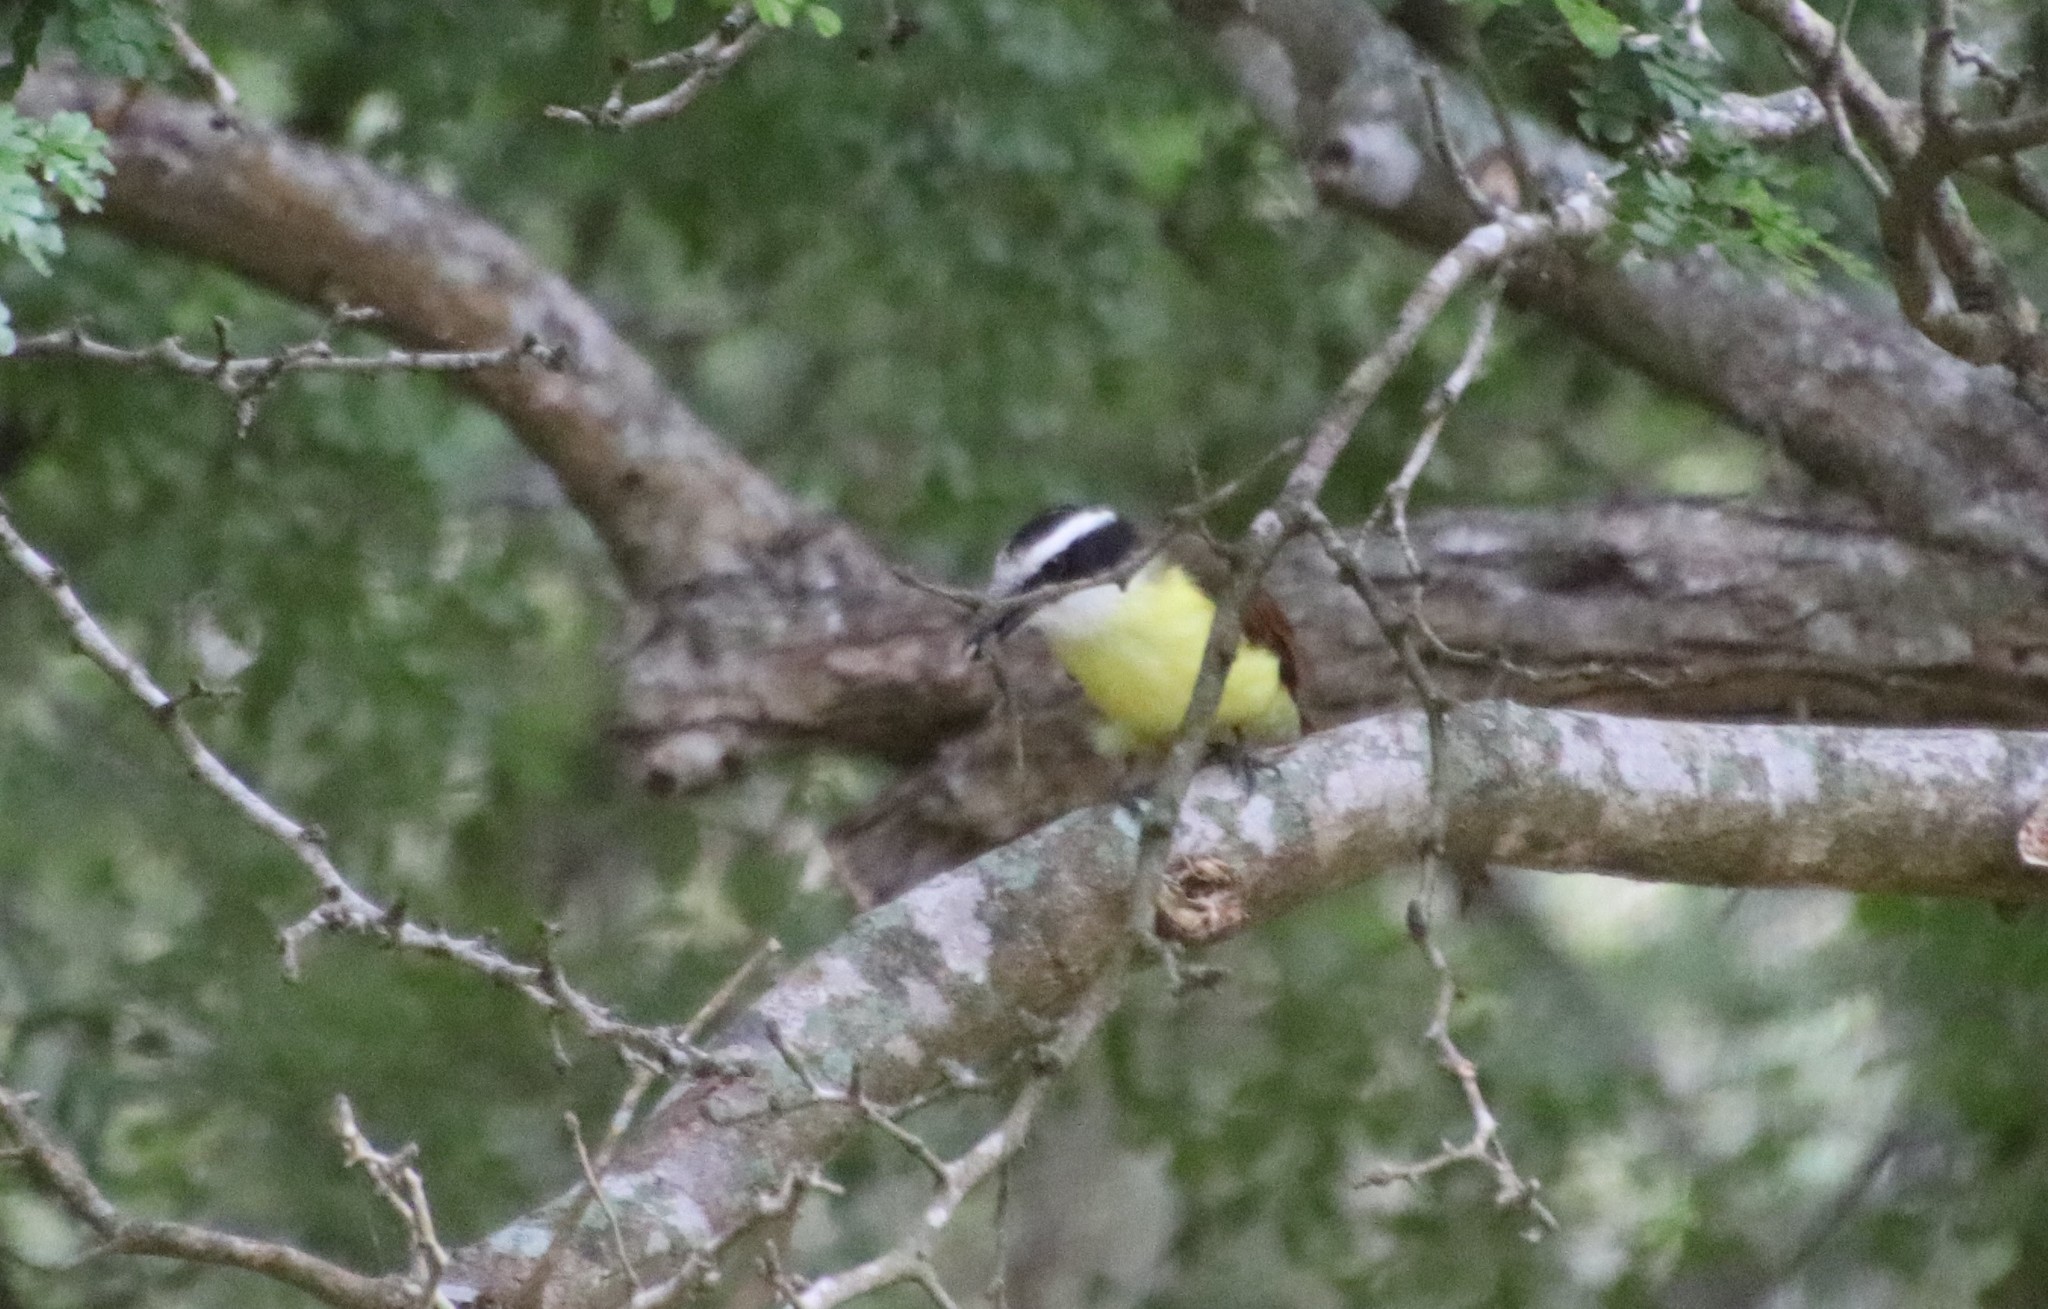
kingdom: Animalia
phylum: Chordata
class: Aves
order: Passeriformes
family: Tyrannidae
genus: Pitangus
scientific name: Pitangus sulphuratus
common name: Great kiskadee
